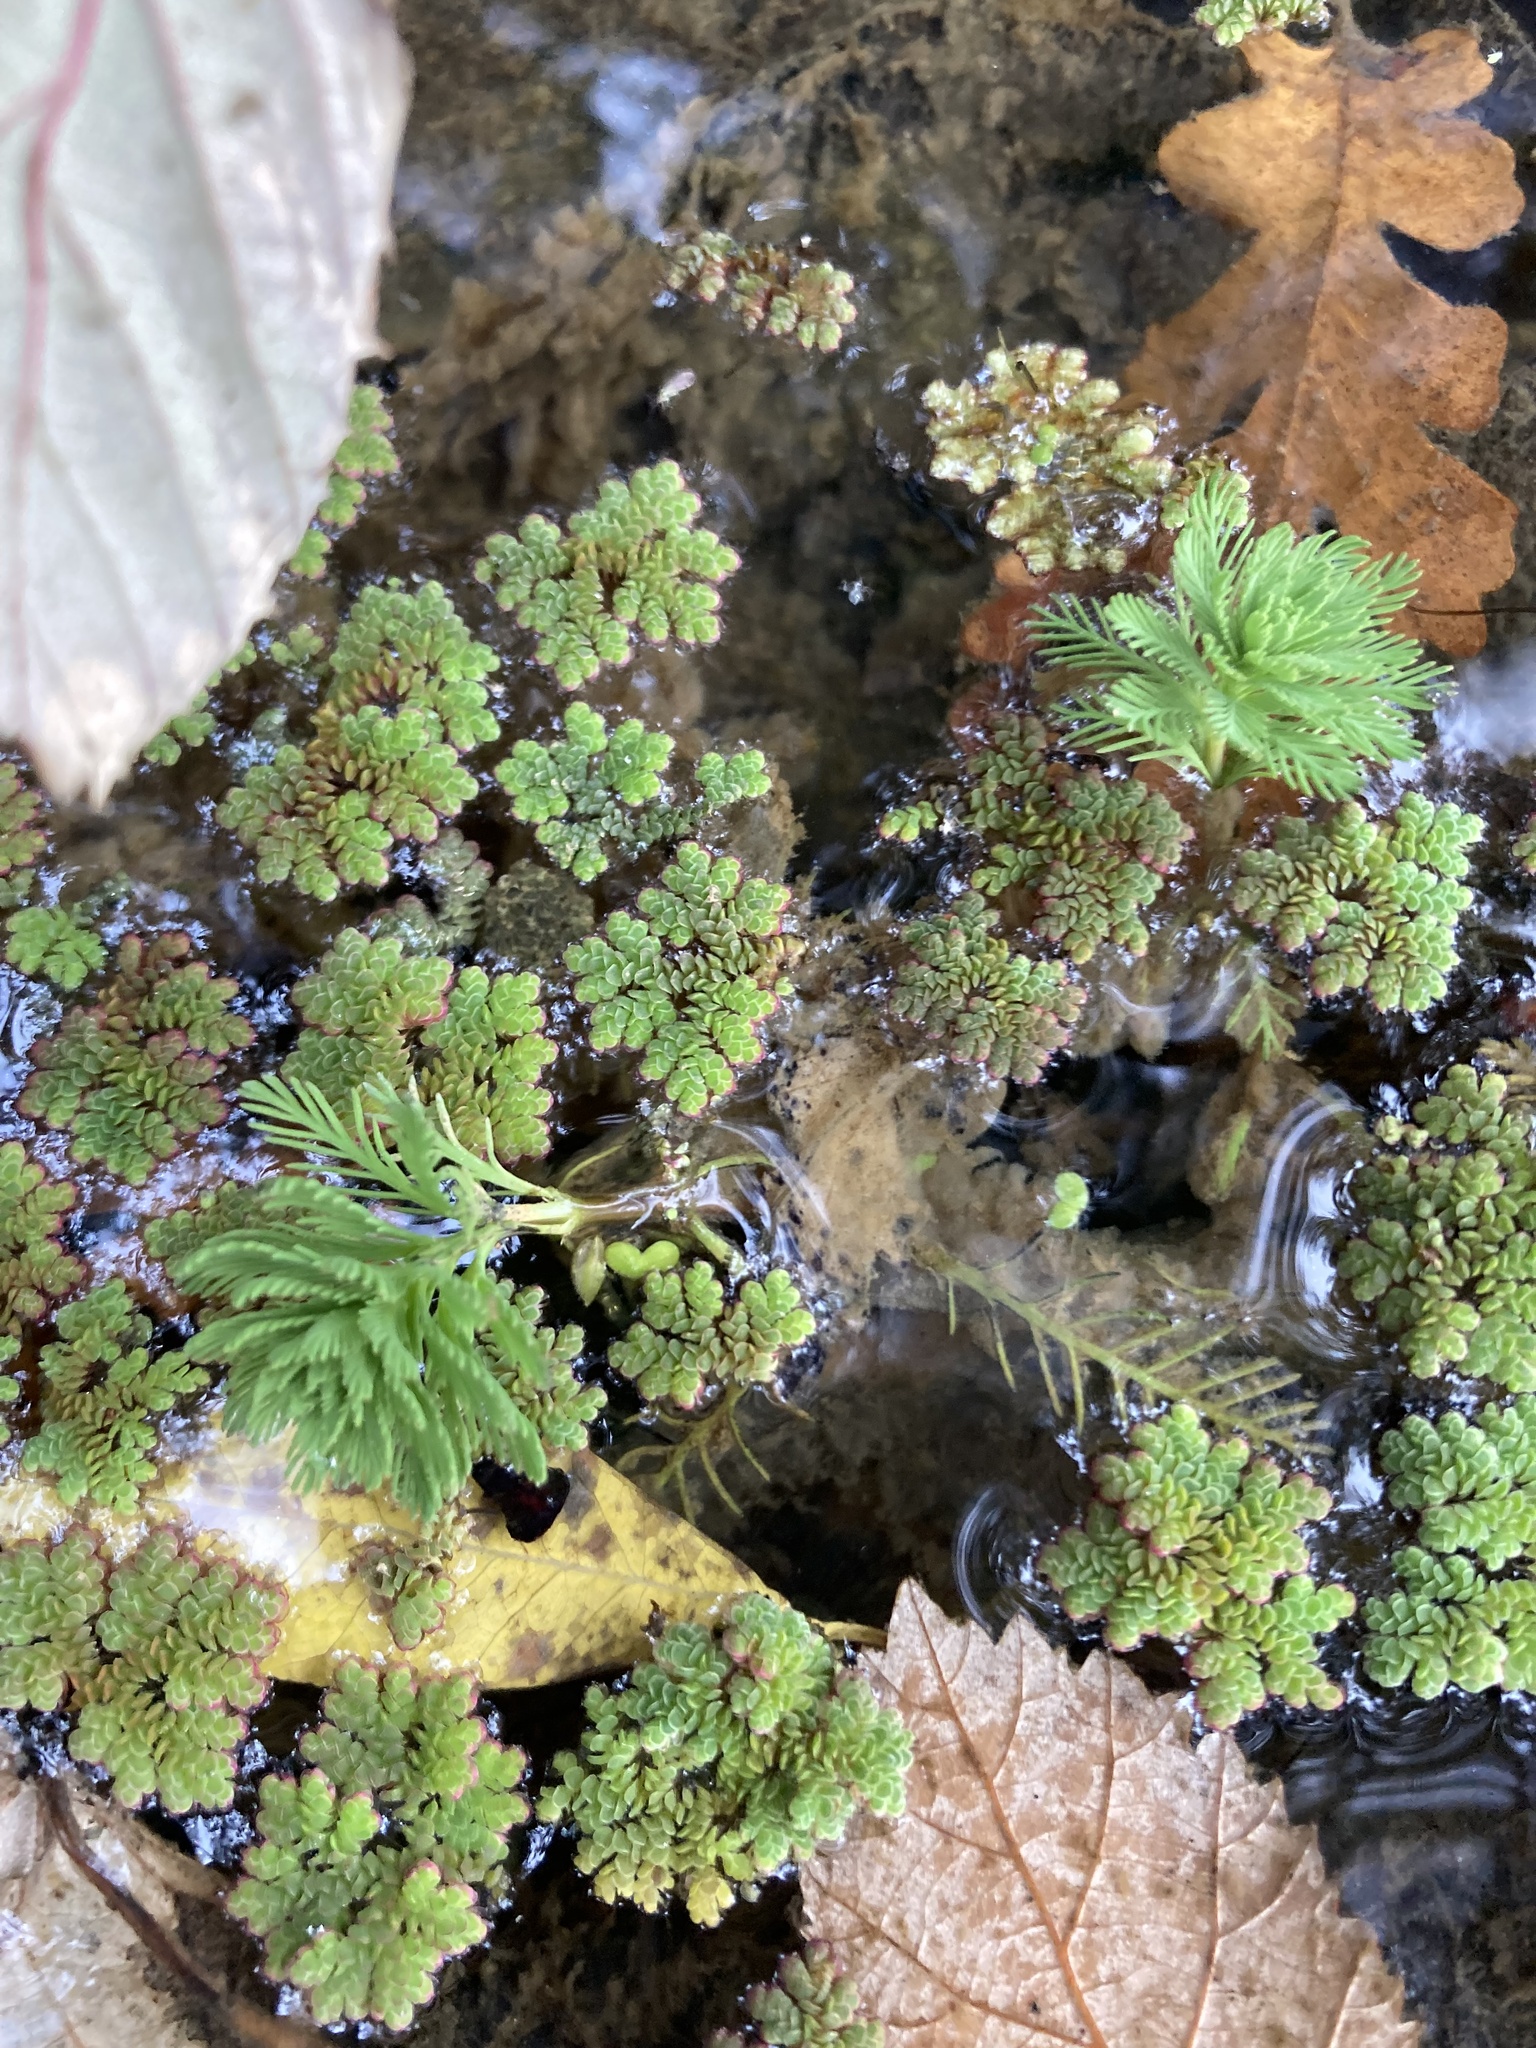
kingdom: Plantae
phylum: Tracheophyta
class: Magnoliopsida
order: Saxifragales
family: Haloragaceae
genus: Myriophyllum
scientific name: Myriophyllum aquaticum
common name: Parrot's feather
